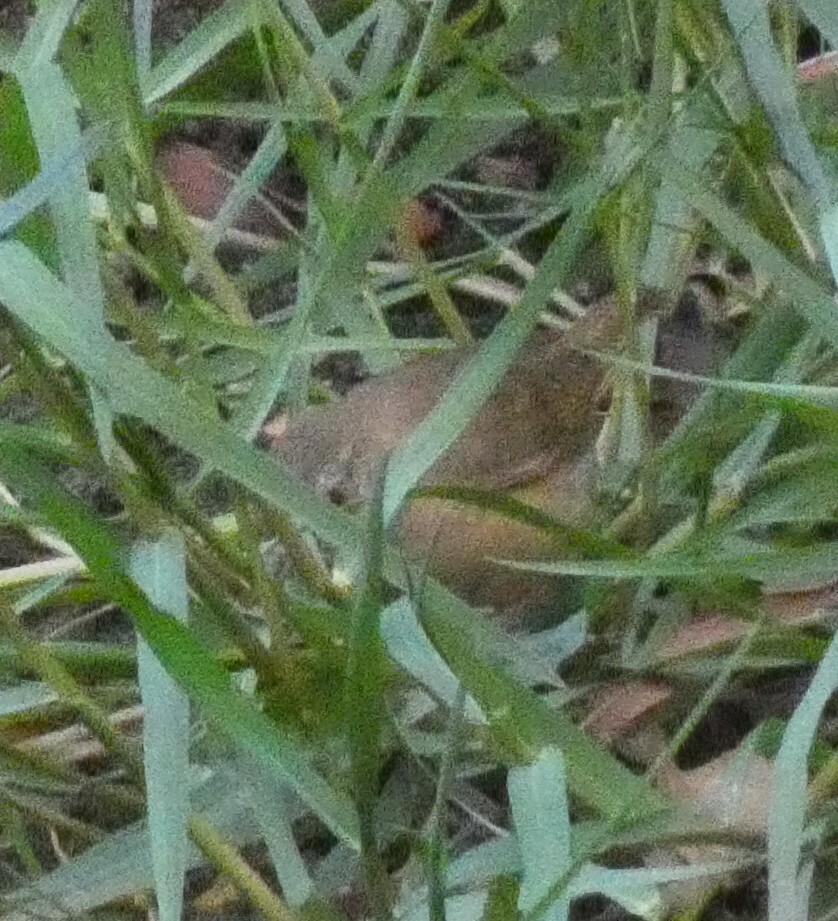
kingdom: Animalia
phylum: Chordata
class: Aves
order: Passeriformes
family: Troglodytidae
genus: Troglodytes
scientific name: Troglodytes aedon
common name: House wren
